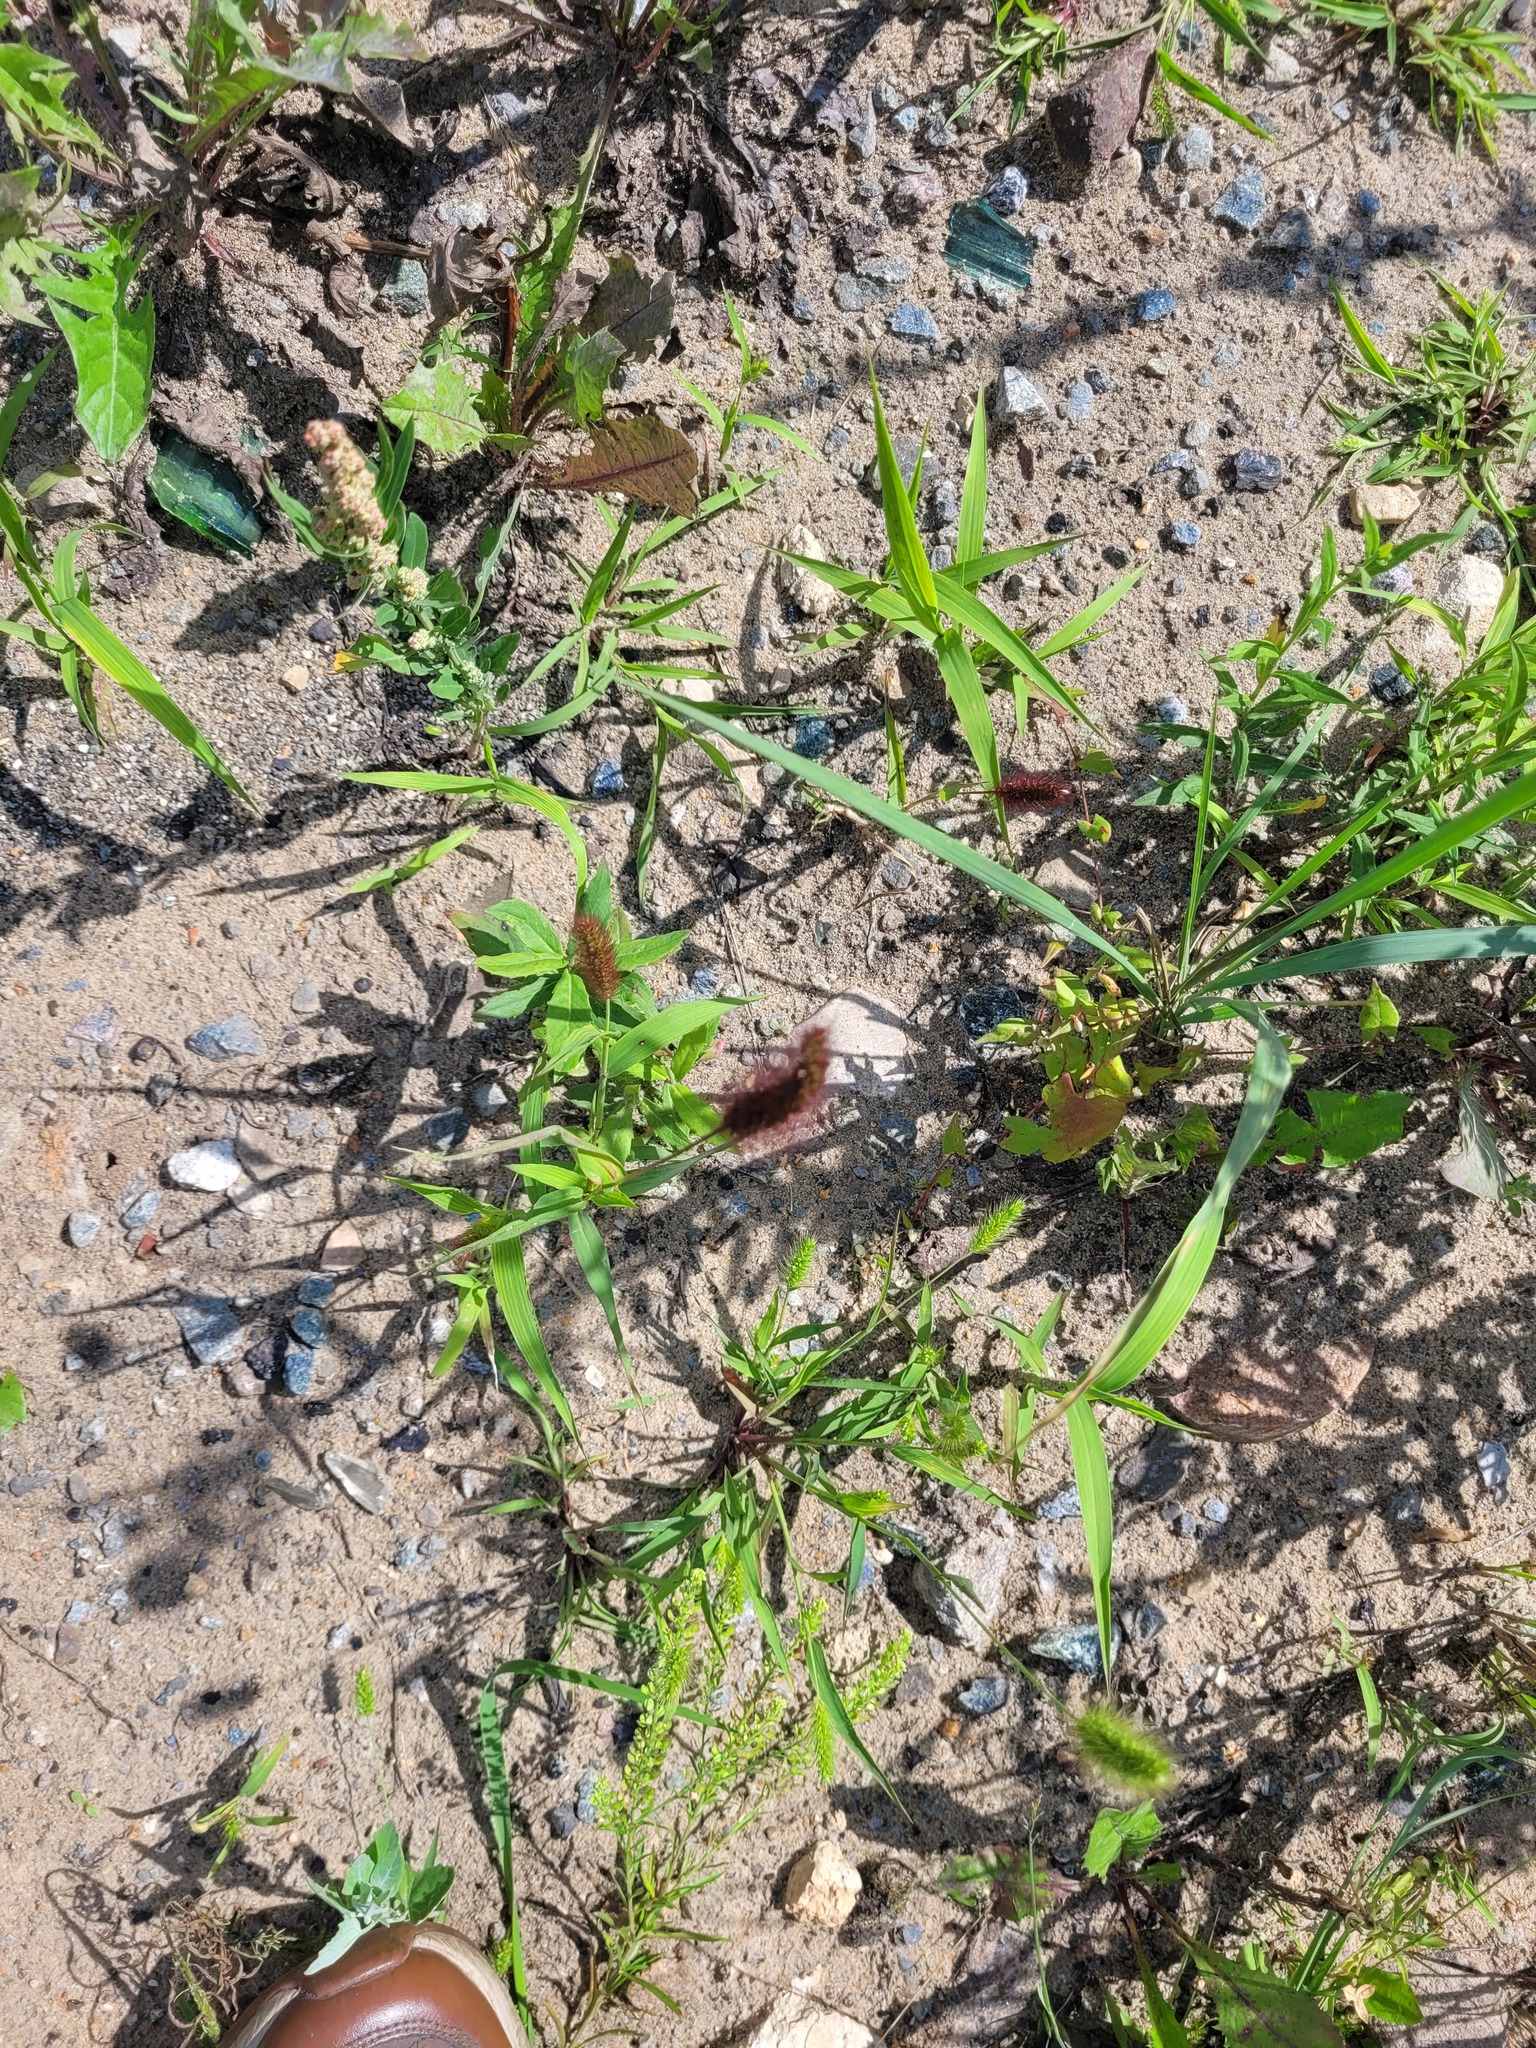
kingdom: Plantae
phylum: Tracheophyta
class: Liliopsida
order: Poales
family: Poaceae
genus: Setaria
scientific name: Setaria viridis
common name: Green bristlegrass
